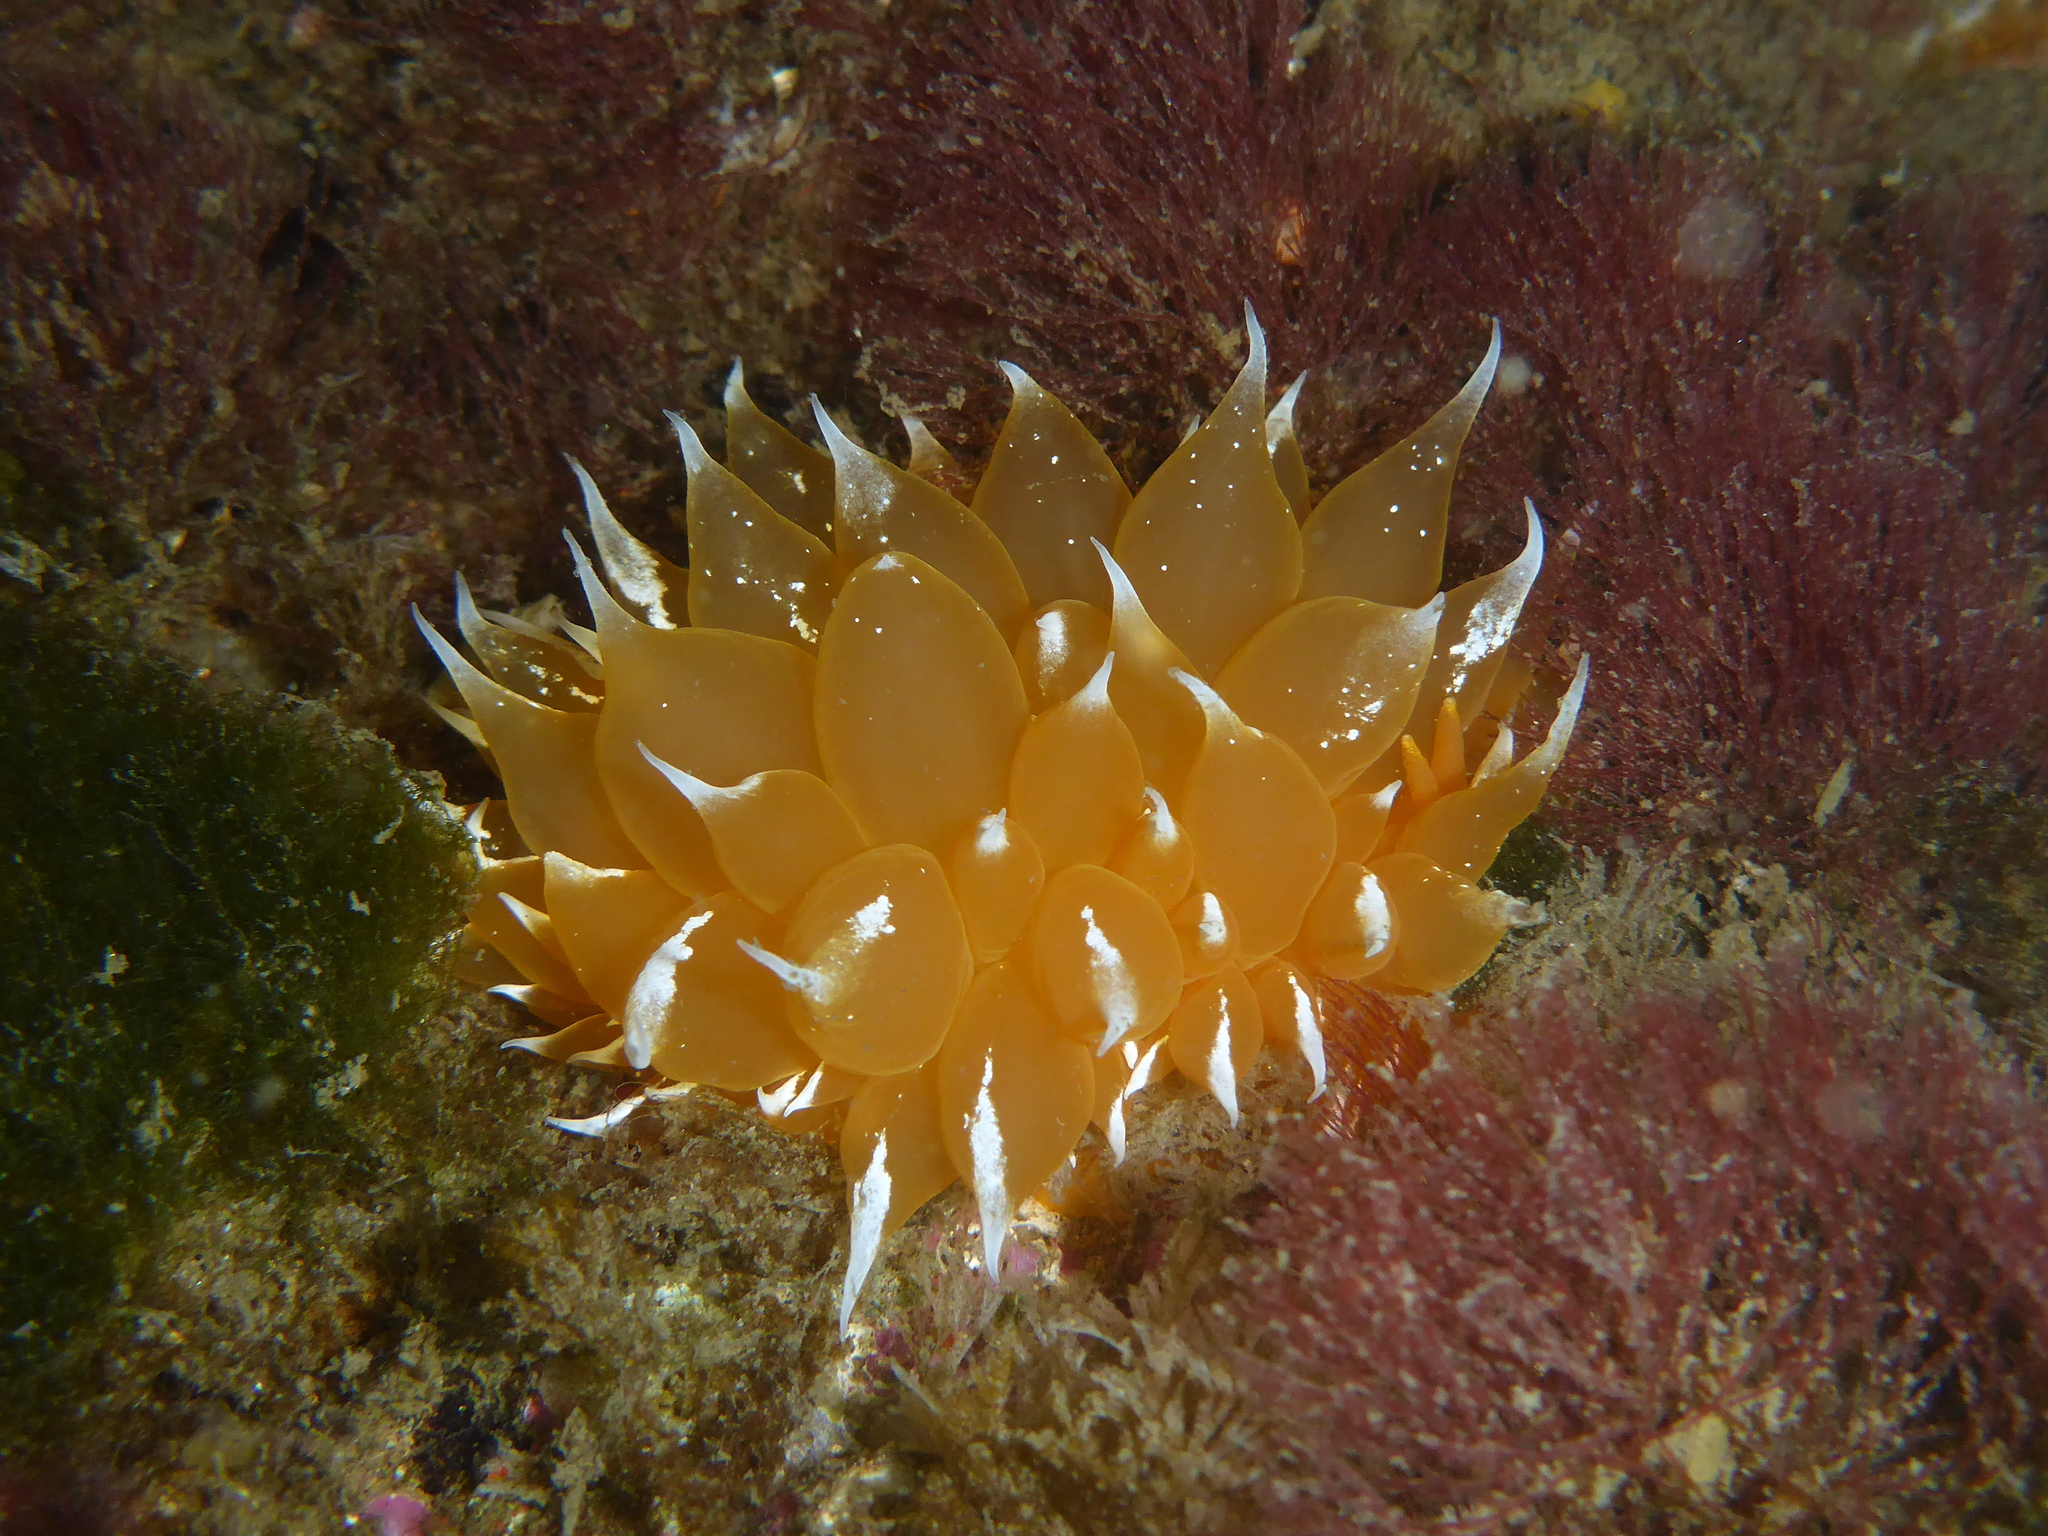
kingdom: Animalia
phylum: Mollusca
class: Gastropoda
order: Nudibranchia
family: Dironidae
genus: Dirona
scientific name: Dirona pellucida
